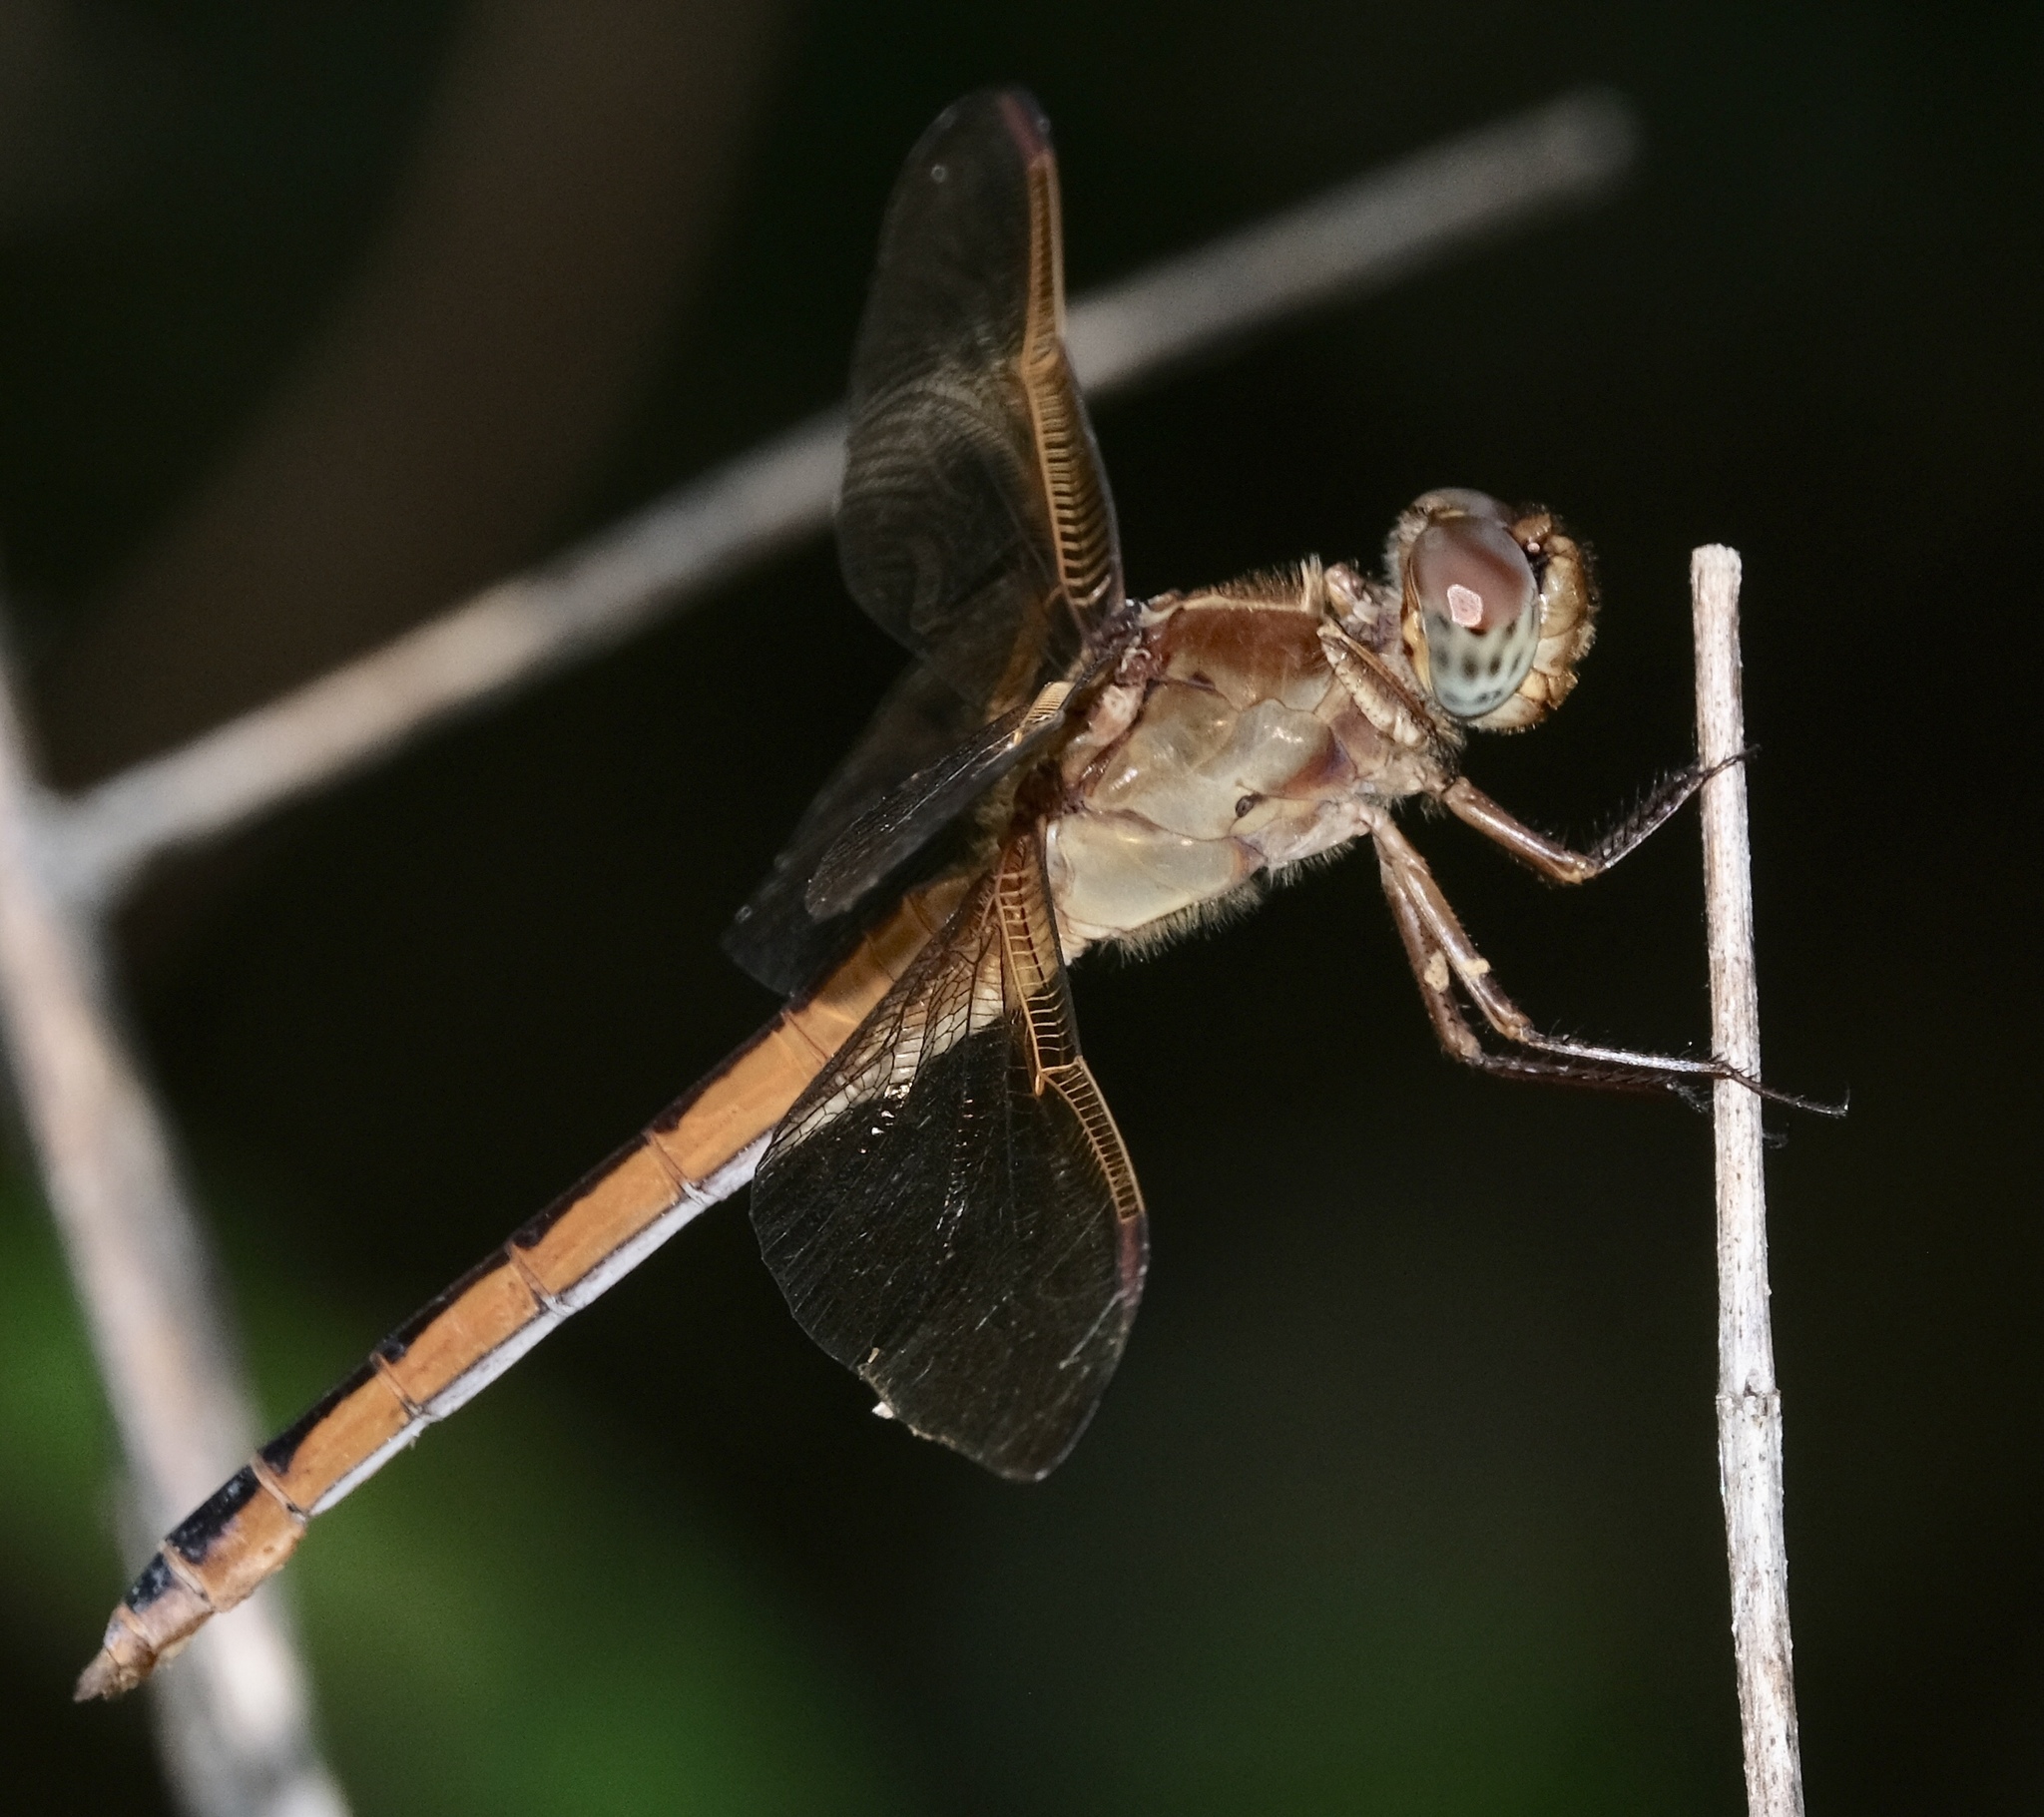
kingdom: Animalia
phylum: Arthropoda
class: Insecta
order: Odonata
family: Libellulidae
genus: Libellula
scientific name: Libellula needhami
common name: Needham's skimmer
